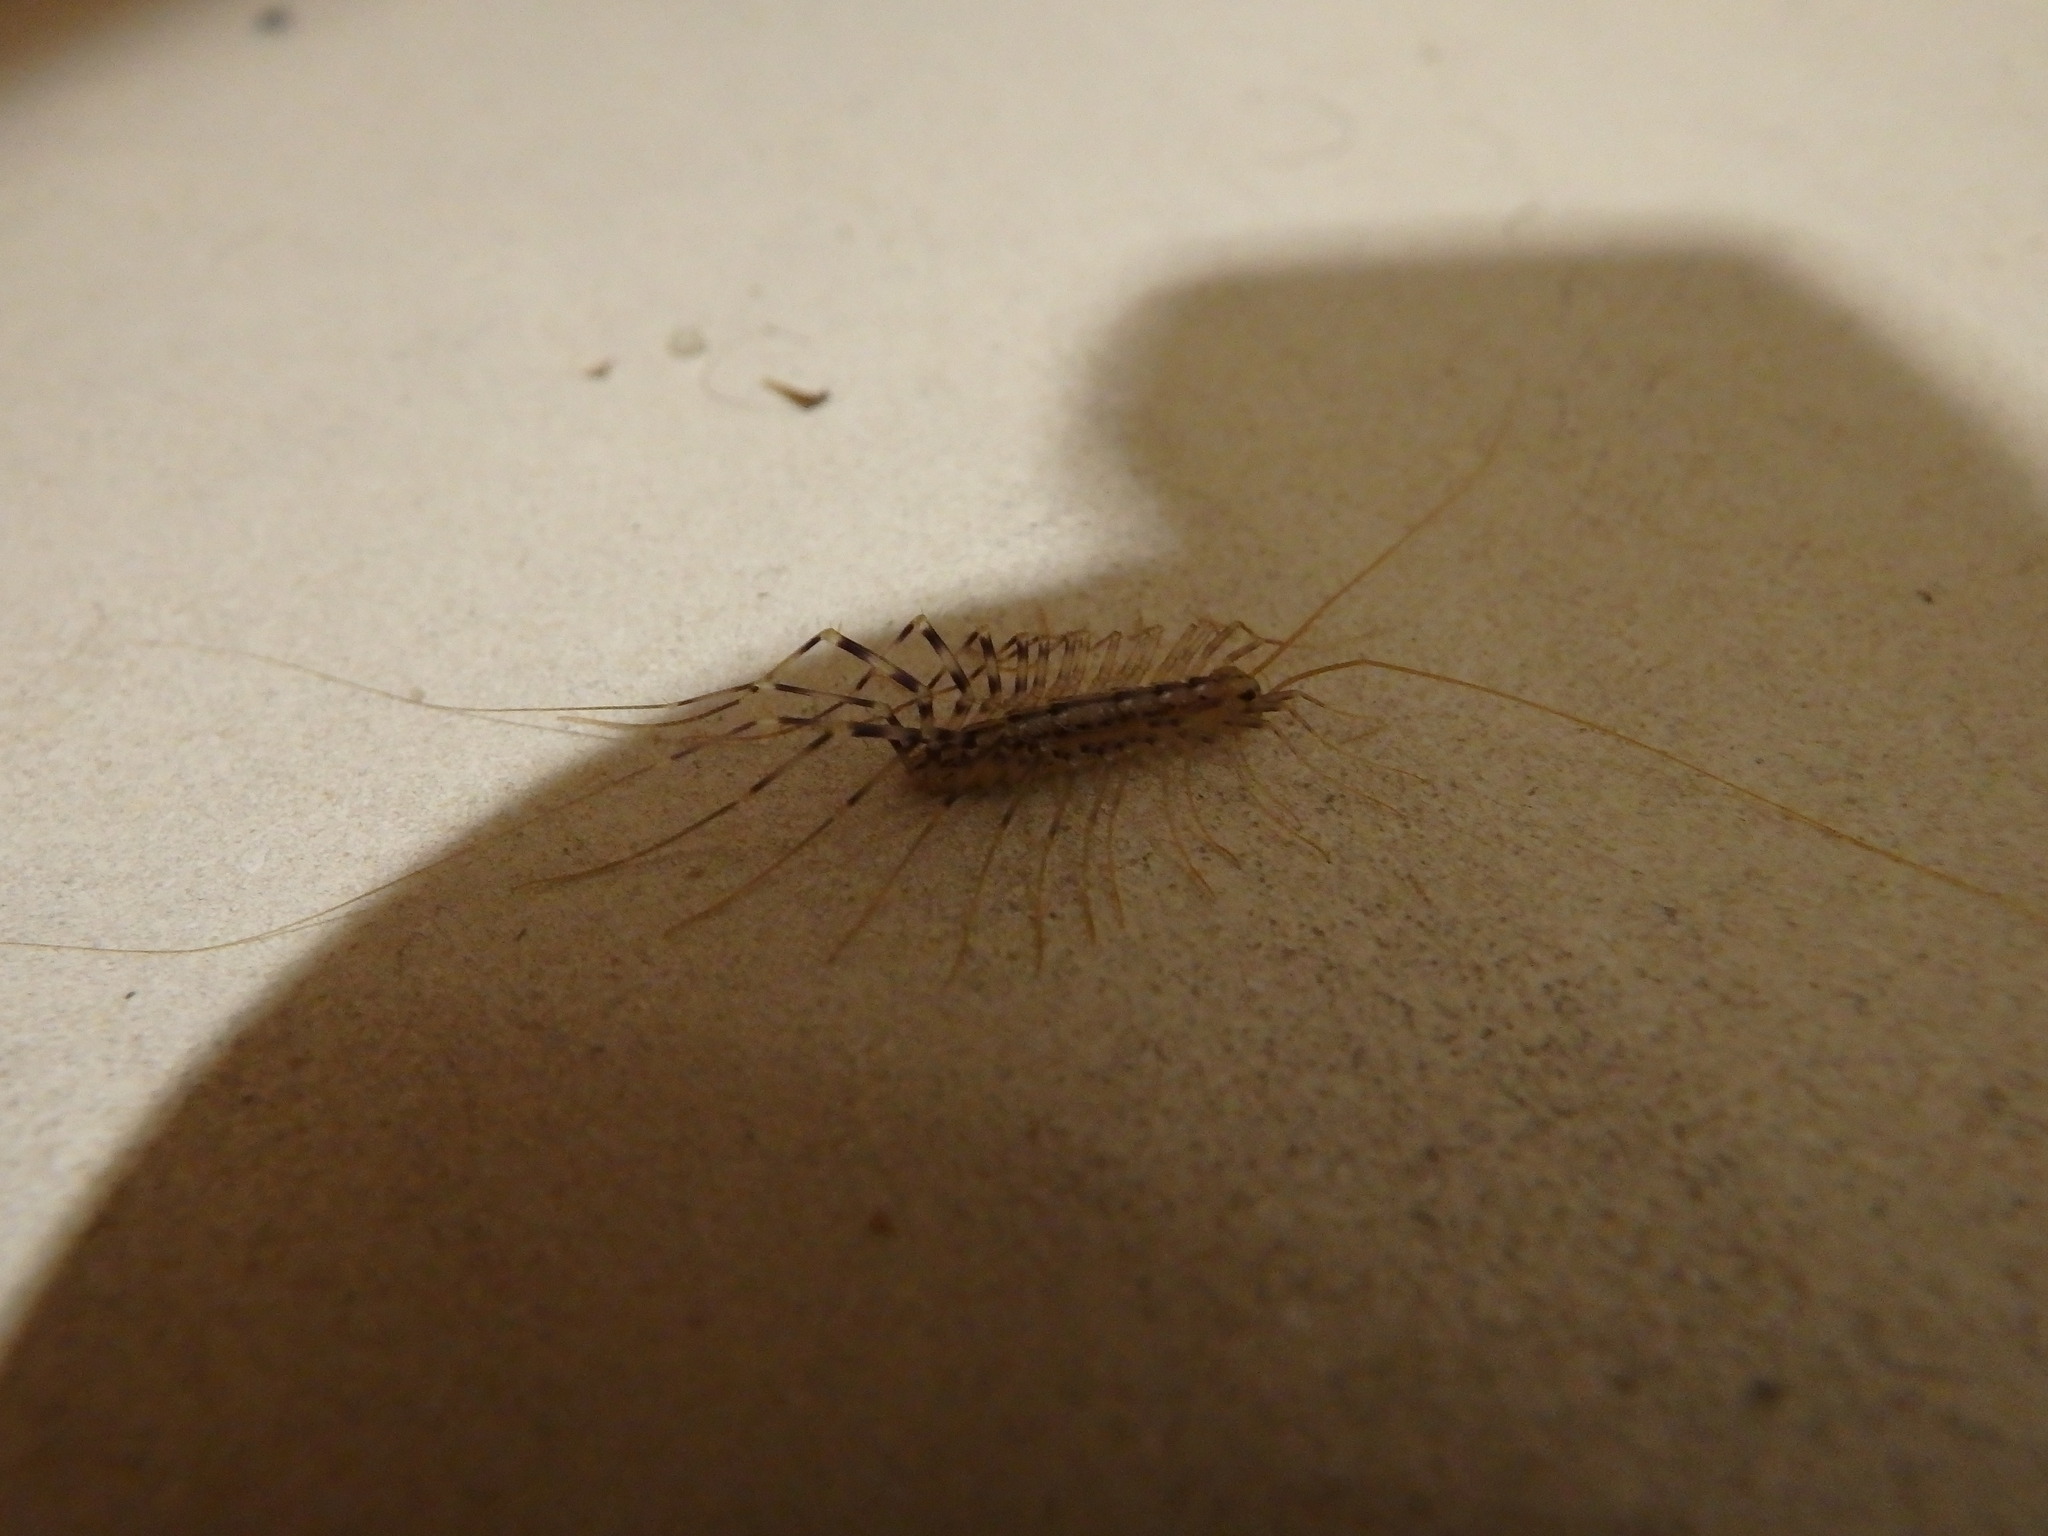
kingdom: Animalia
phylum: Arthropoda
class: Chilopoda
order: Scutigeromorpha
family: Scutigeridae
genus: Scutigera
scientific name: Scutigera coleoptrata
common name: House centipede
